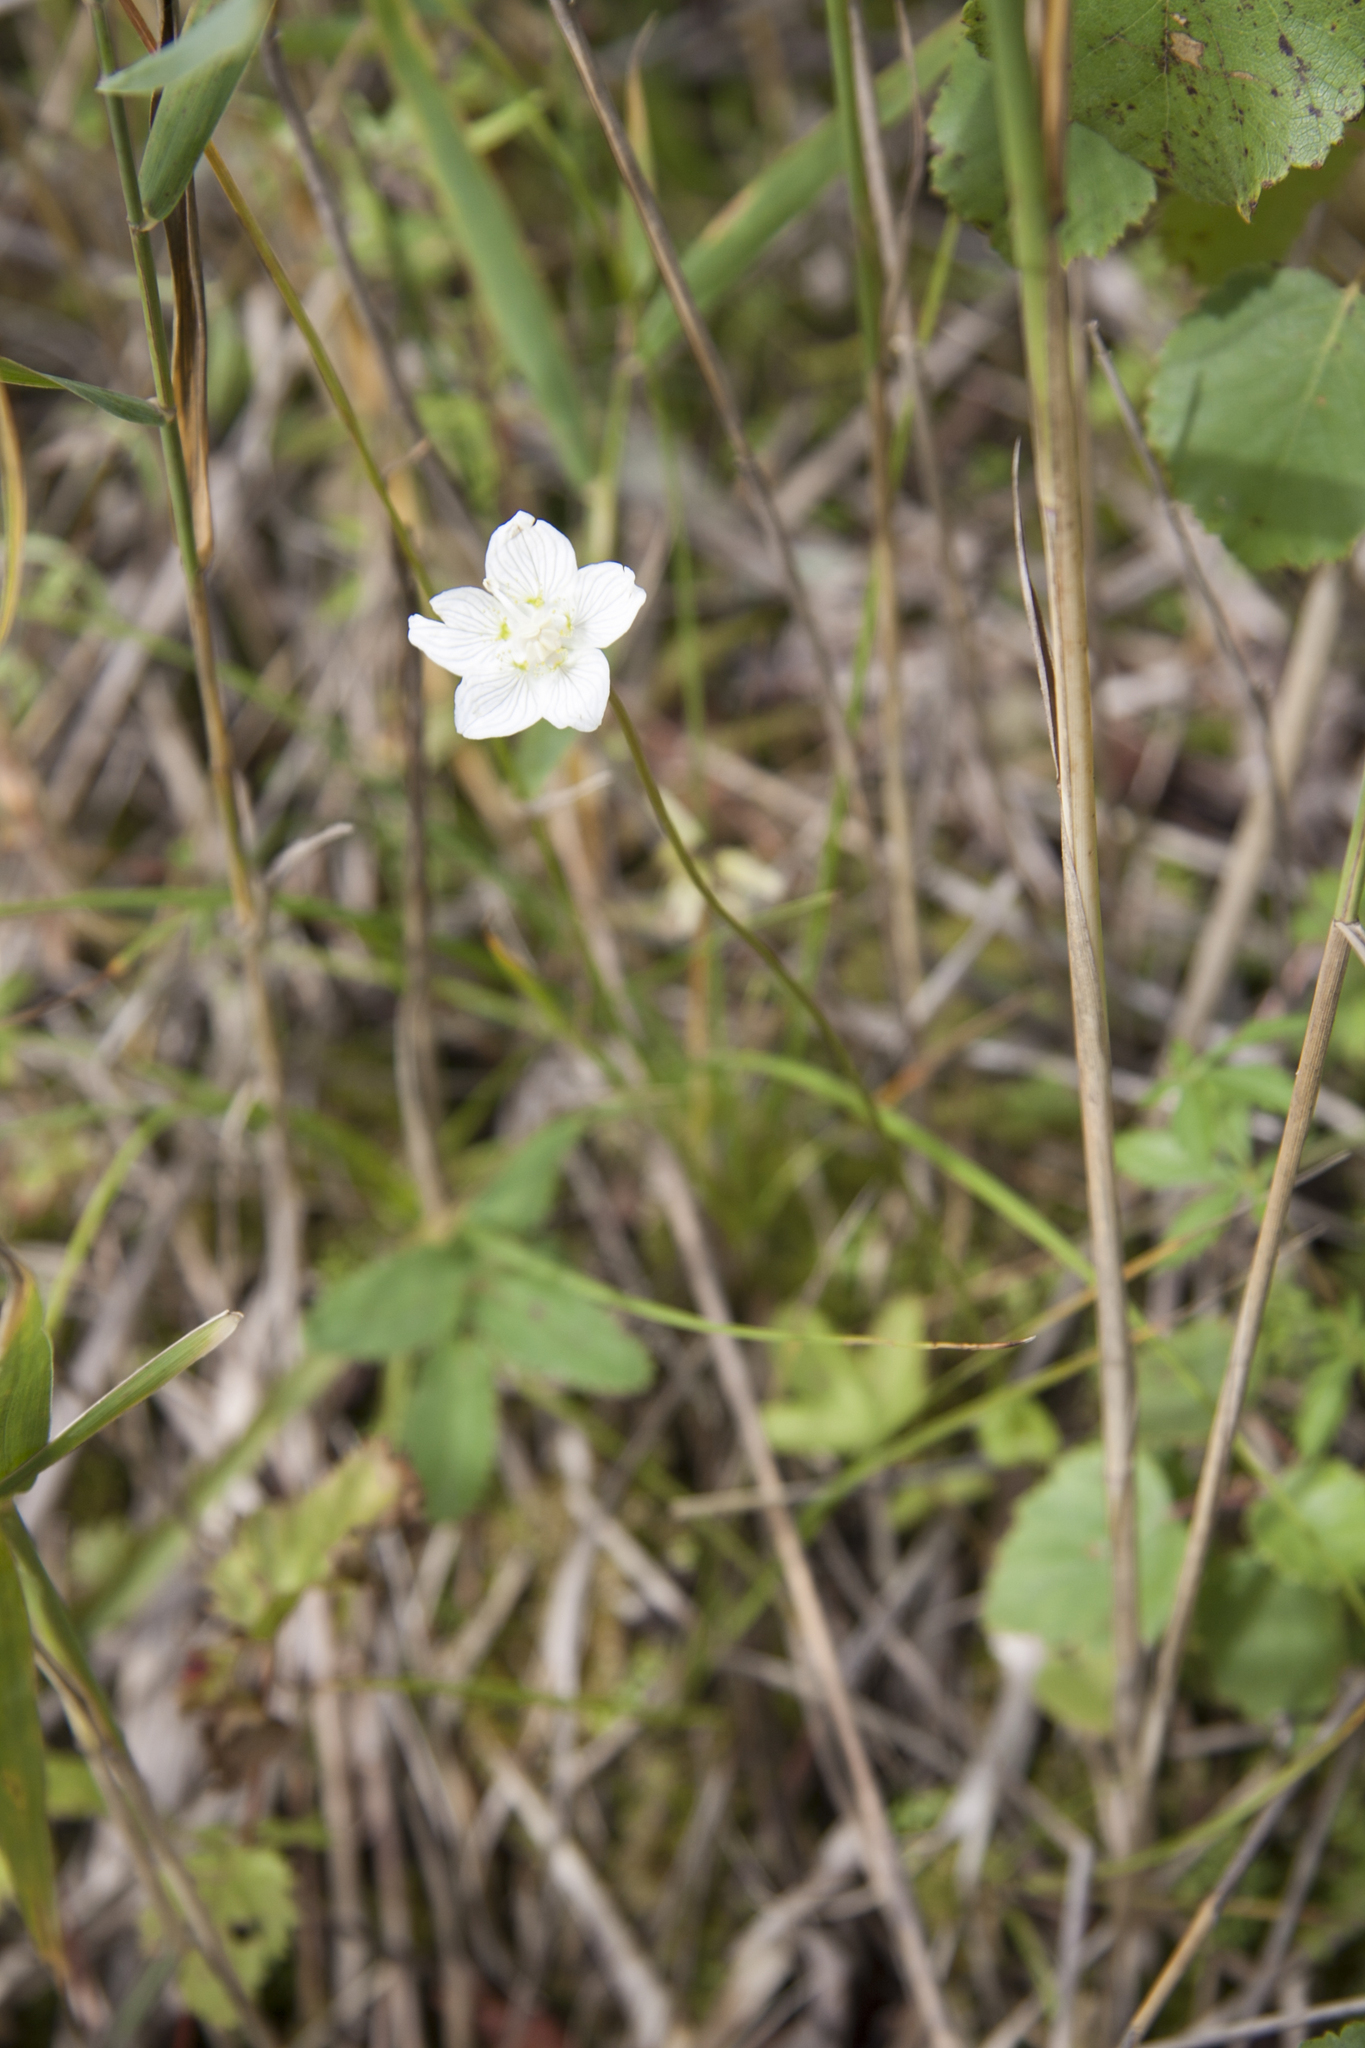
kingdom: Plantae
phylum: Tracheophyta
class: Magnoliopsida
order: Celastrales
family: Parnassiaceae
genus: Parnassia
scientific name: Parnassia palustris
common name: Grass-of-parnassus
